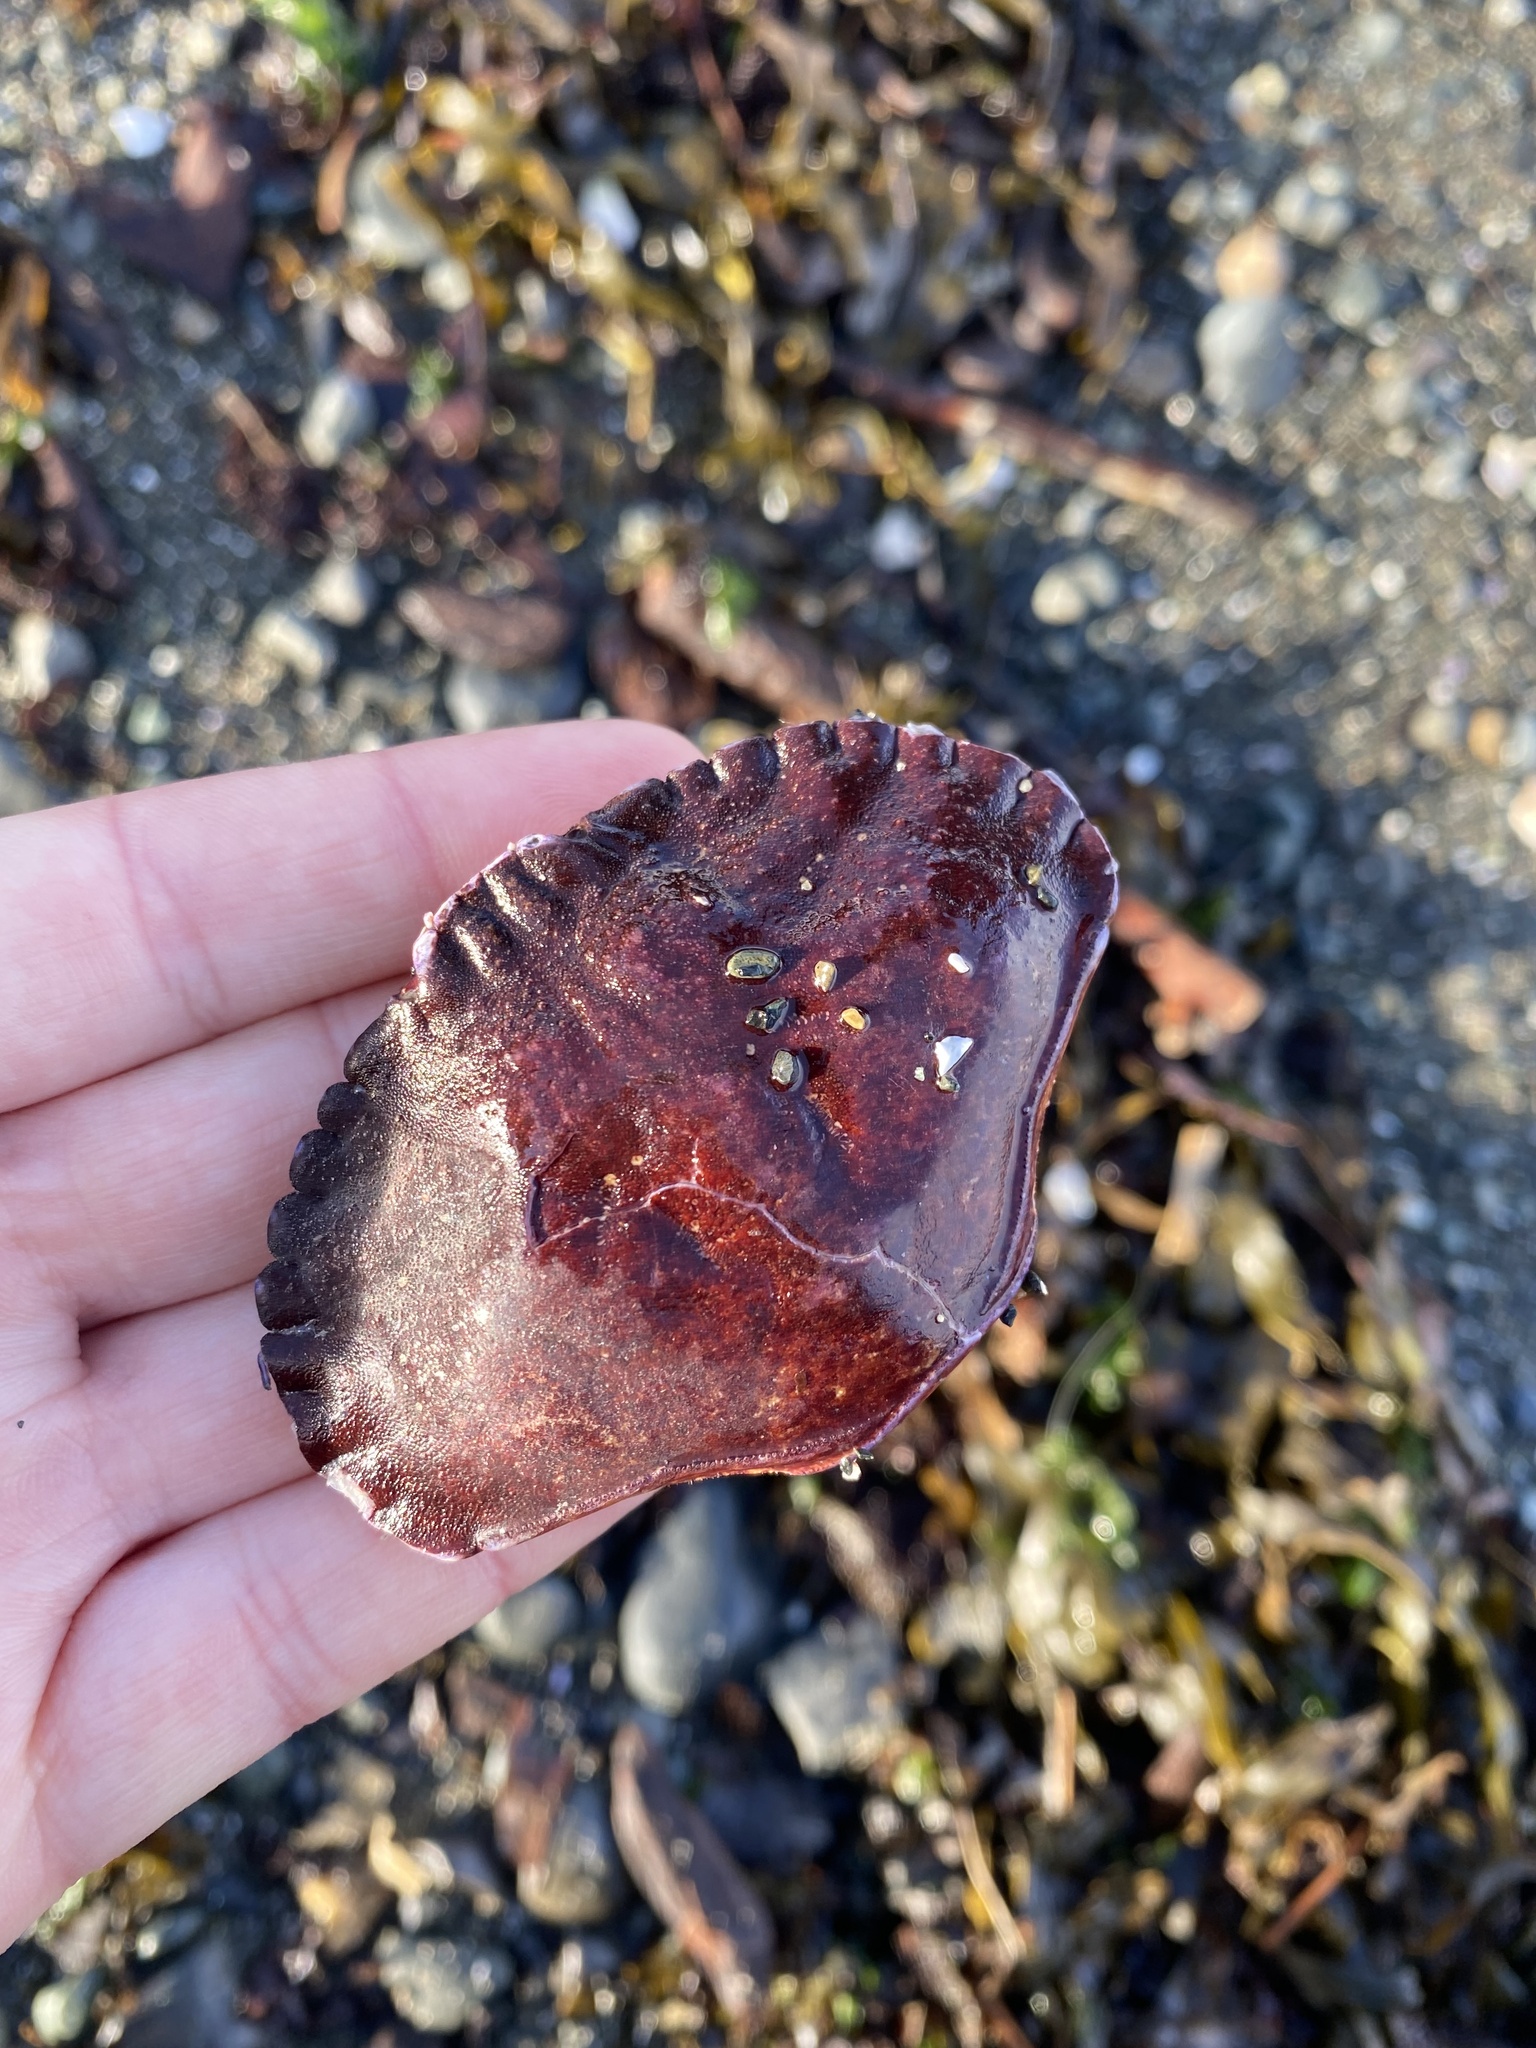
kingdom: Animalia
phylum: Arthropoda
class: Malacostraca
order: Decapoda
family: Cancridae
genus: Cancer
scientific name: Cancer productus
